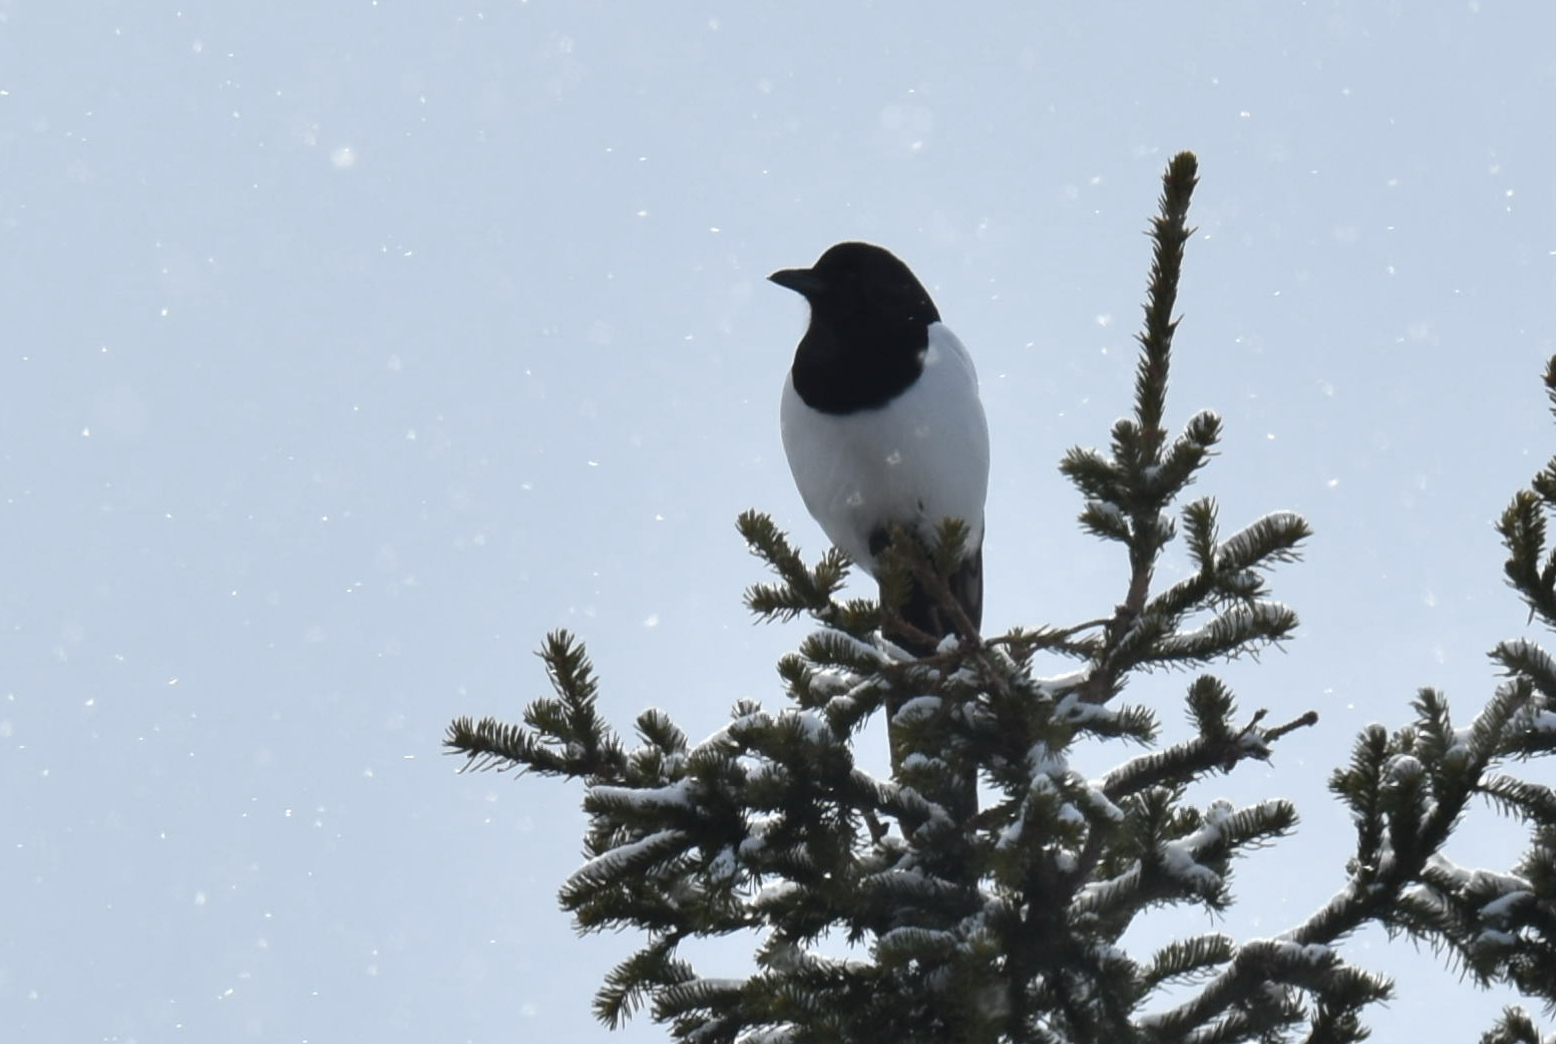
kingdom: Animalia
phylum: Chordata
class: Aves
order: Passeriformes
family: Corvidae
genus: Pica
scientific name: Pica pica
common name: Eurasian magpie
